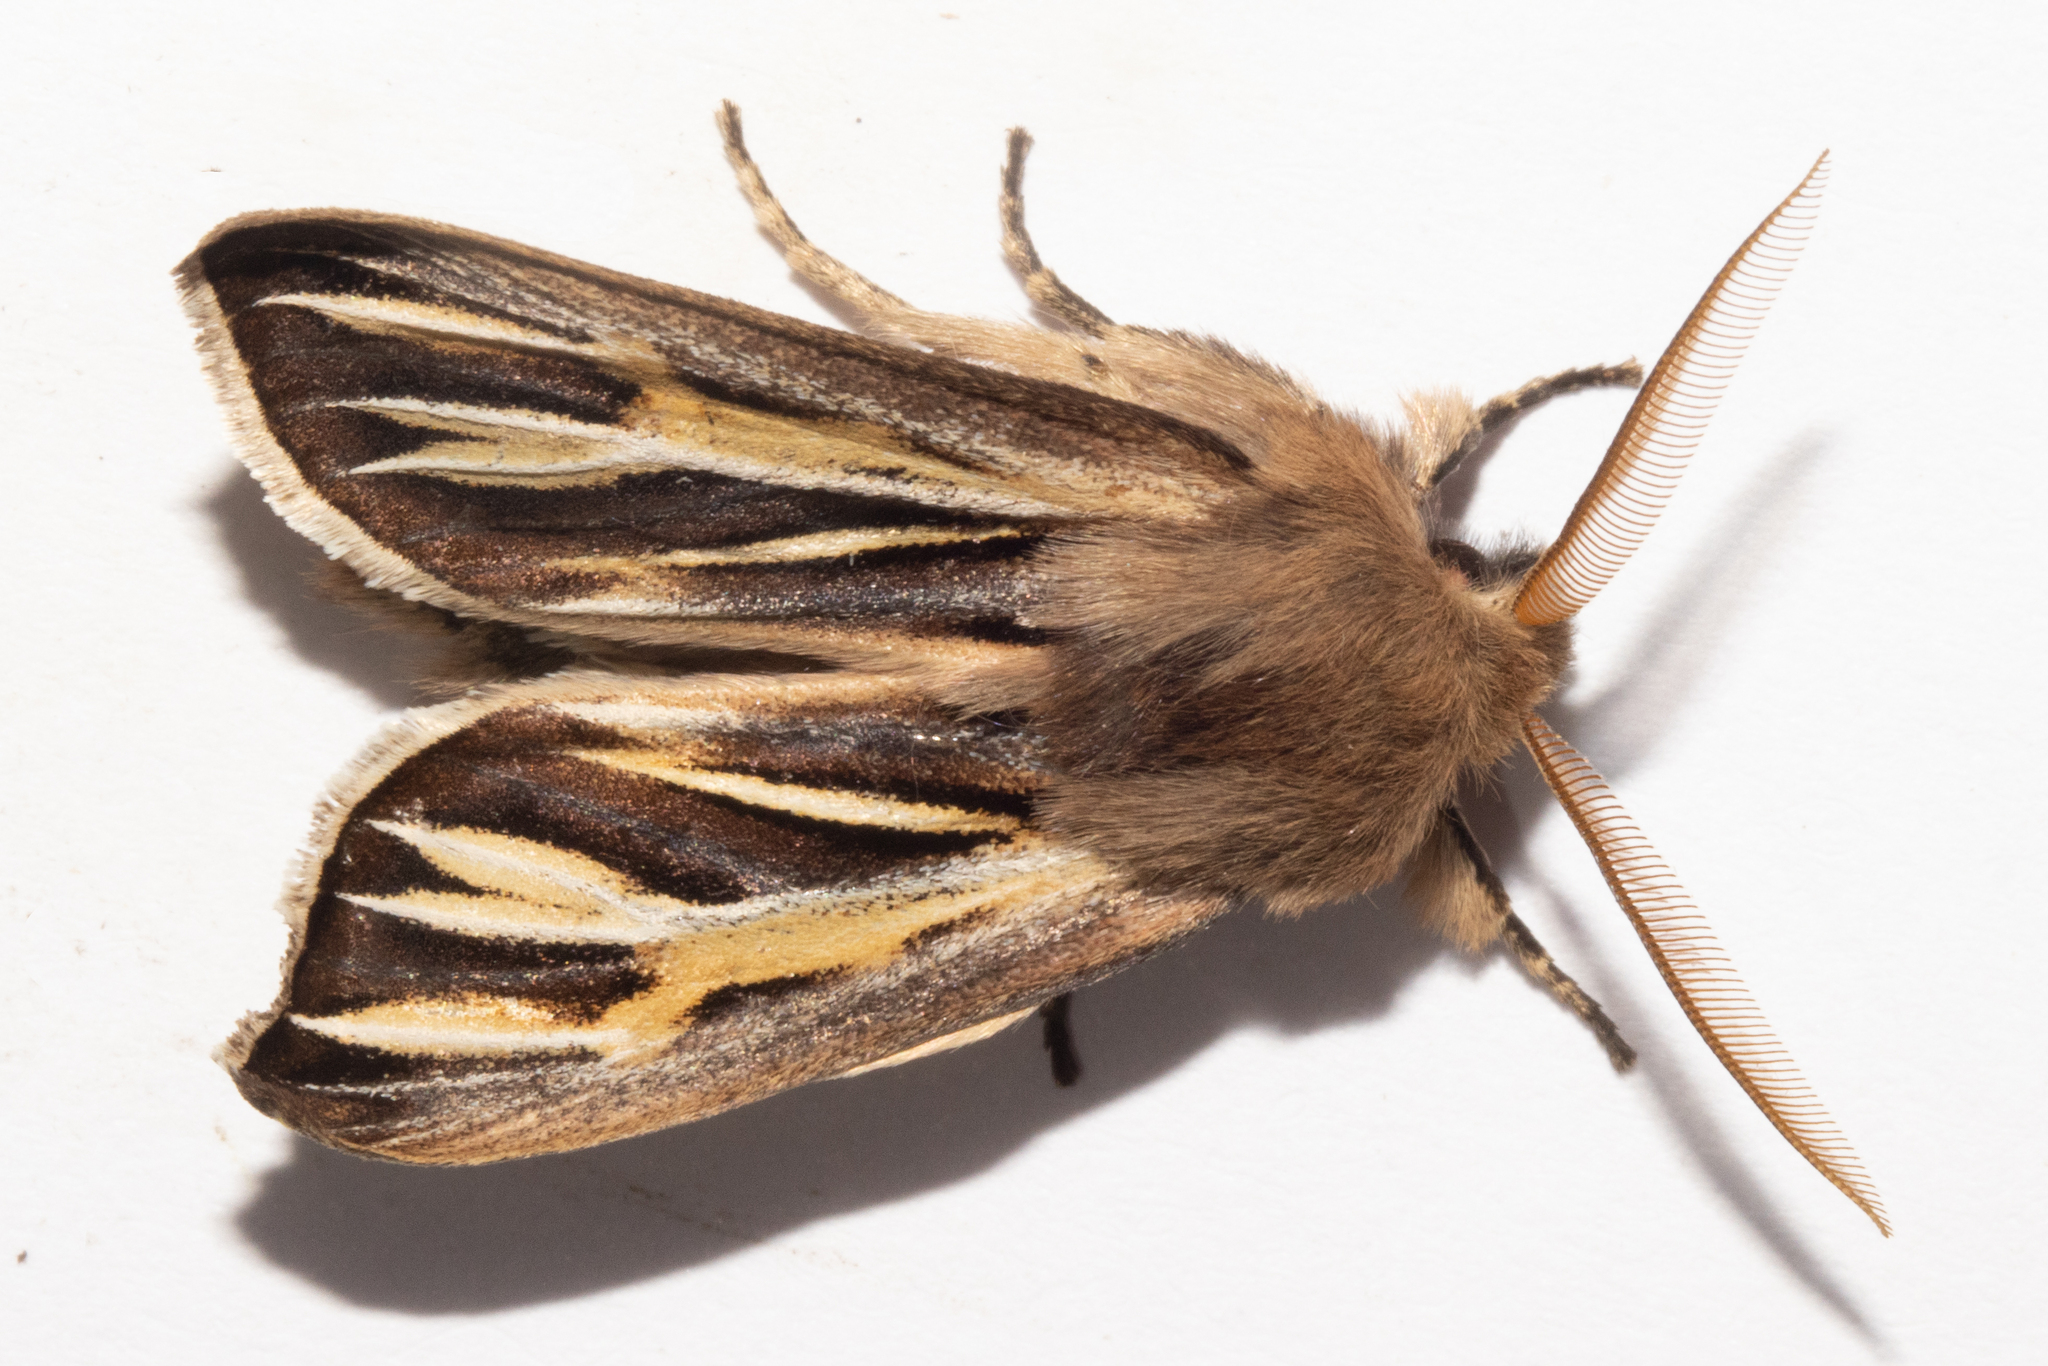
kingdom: Animalia
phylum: Arthropoda
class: Insecta
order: Lepidoptera
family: Noctuidae
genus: Ichneutica
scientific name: Ichneutica caraunias
